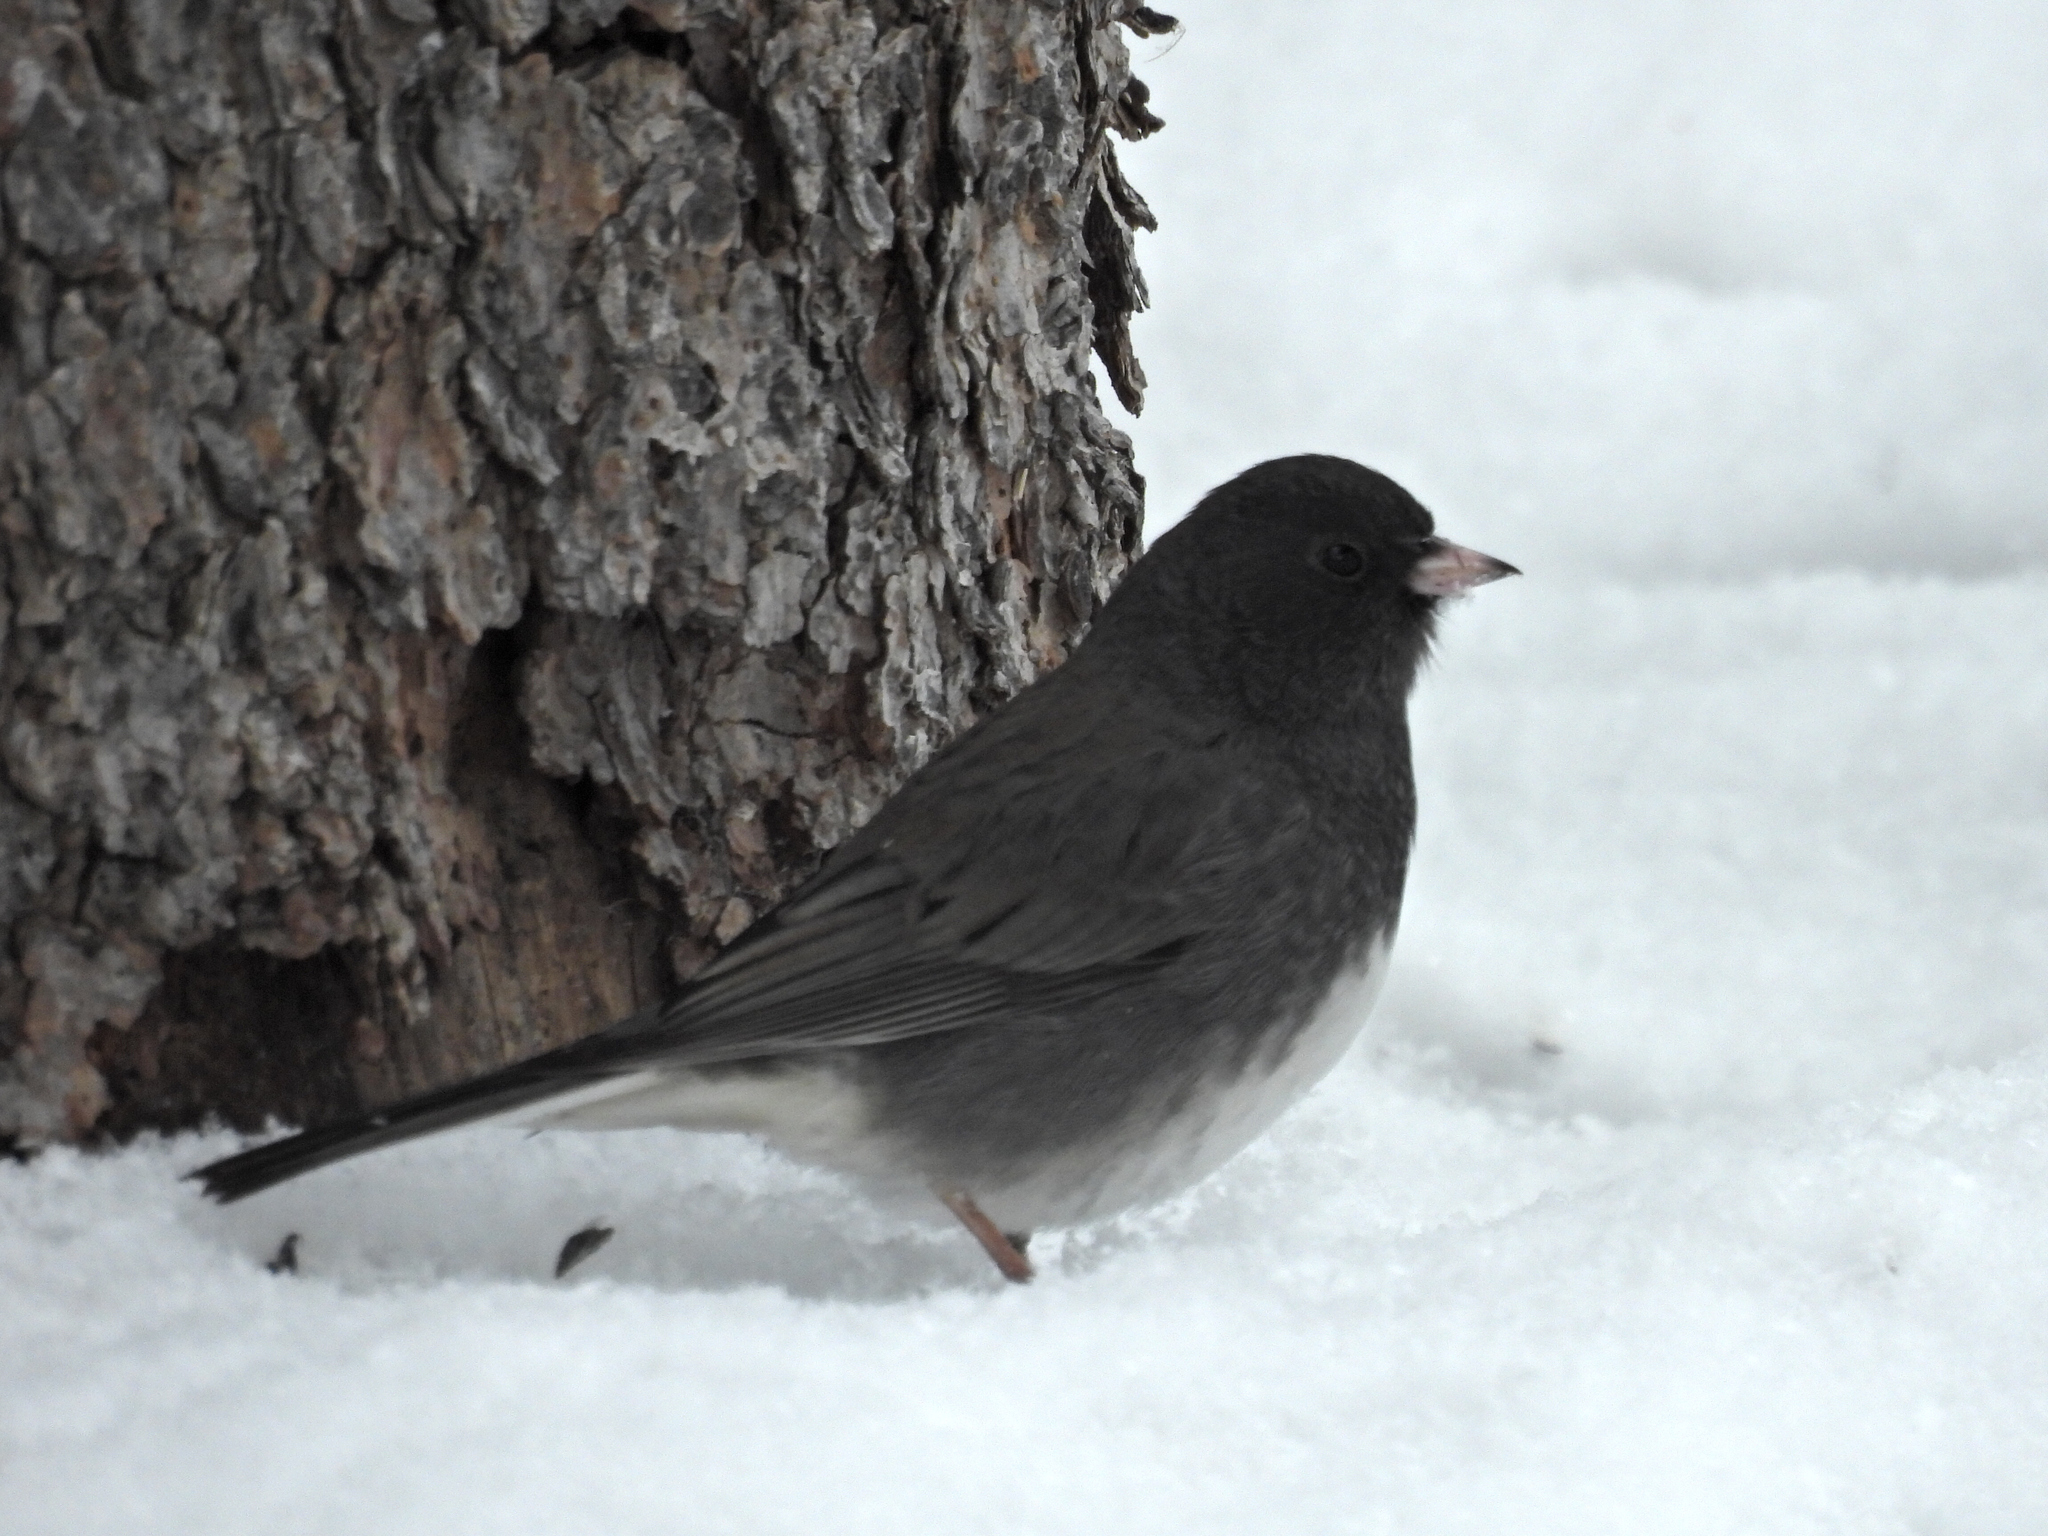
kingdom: Animalia
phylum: Chordata
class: Aves
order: Passeriformes
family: Passerellidae
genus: Junco
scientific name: Junco hyemalis
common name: Dark-eyed junco
